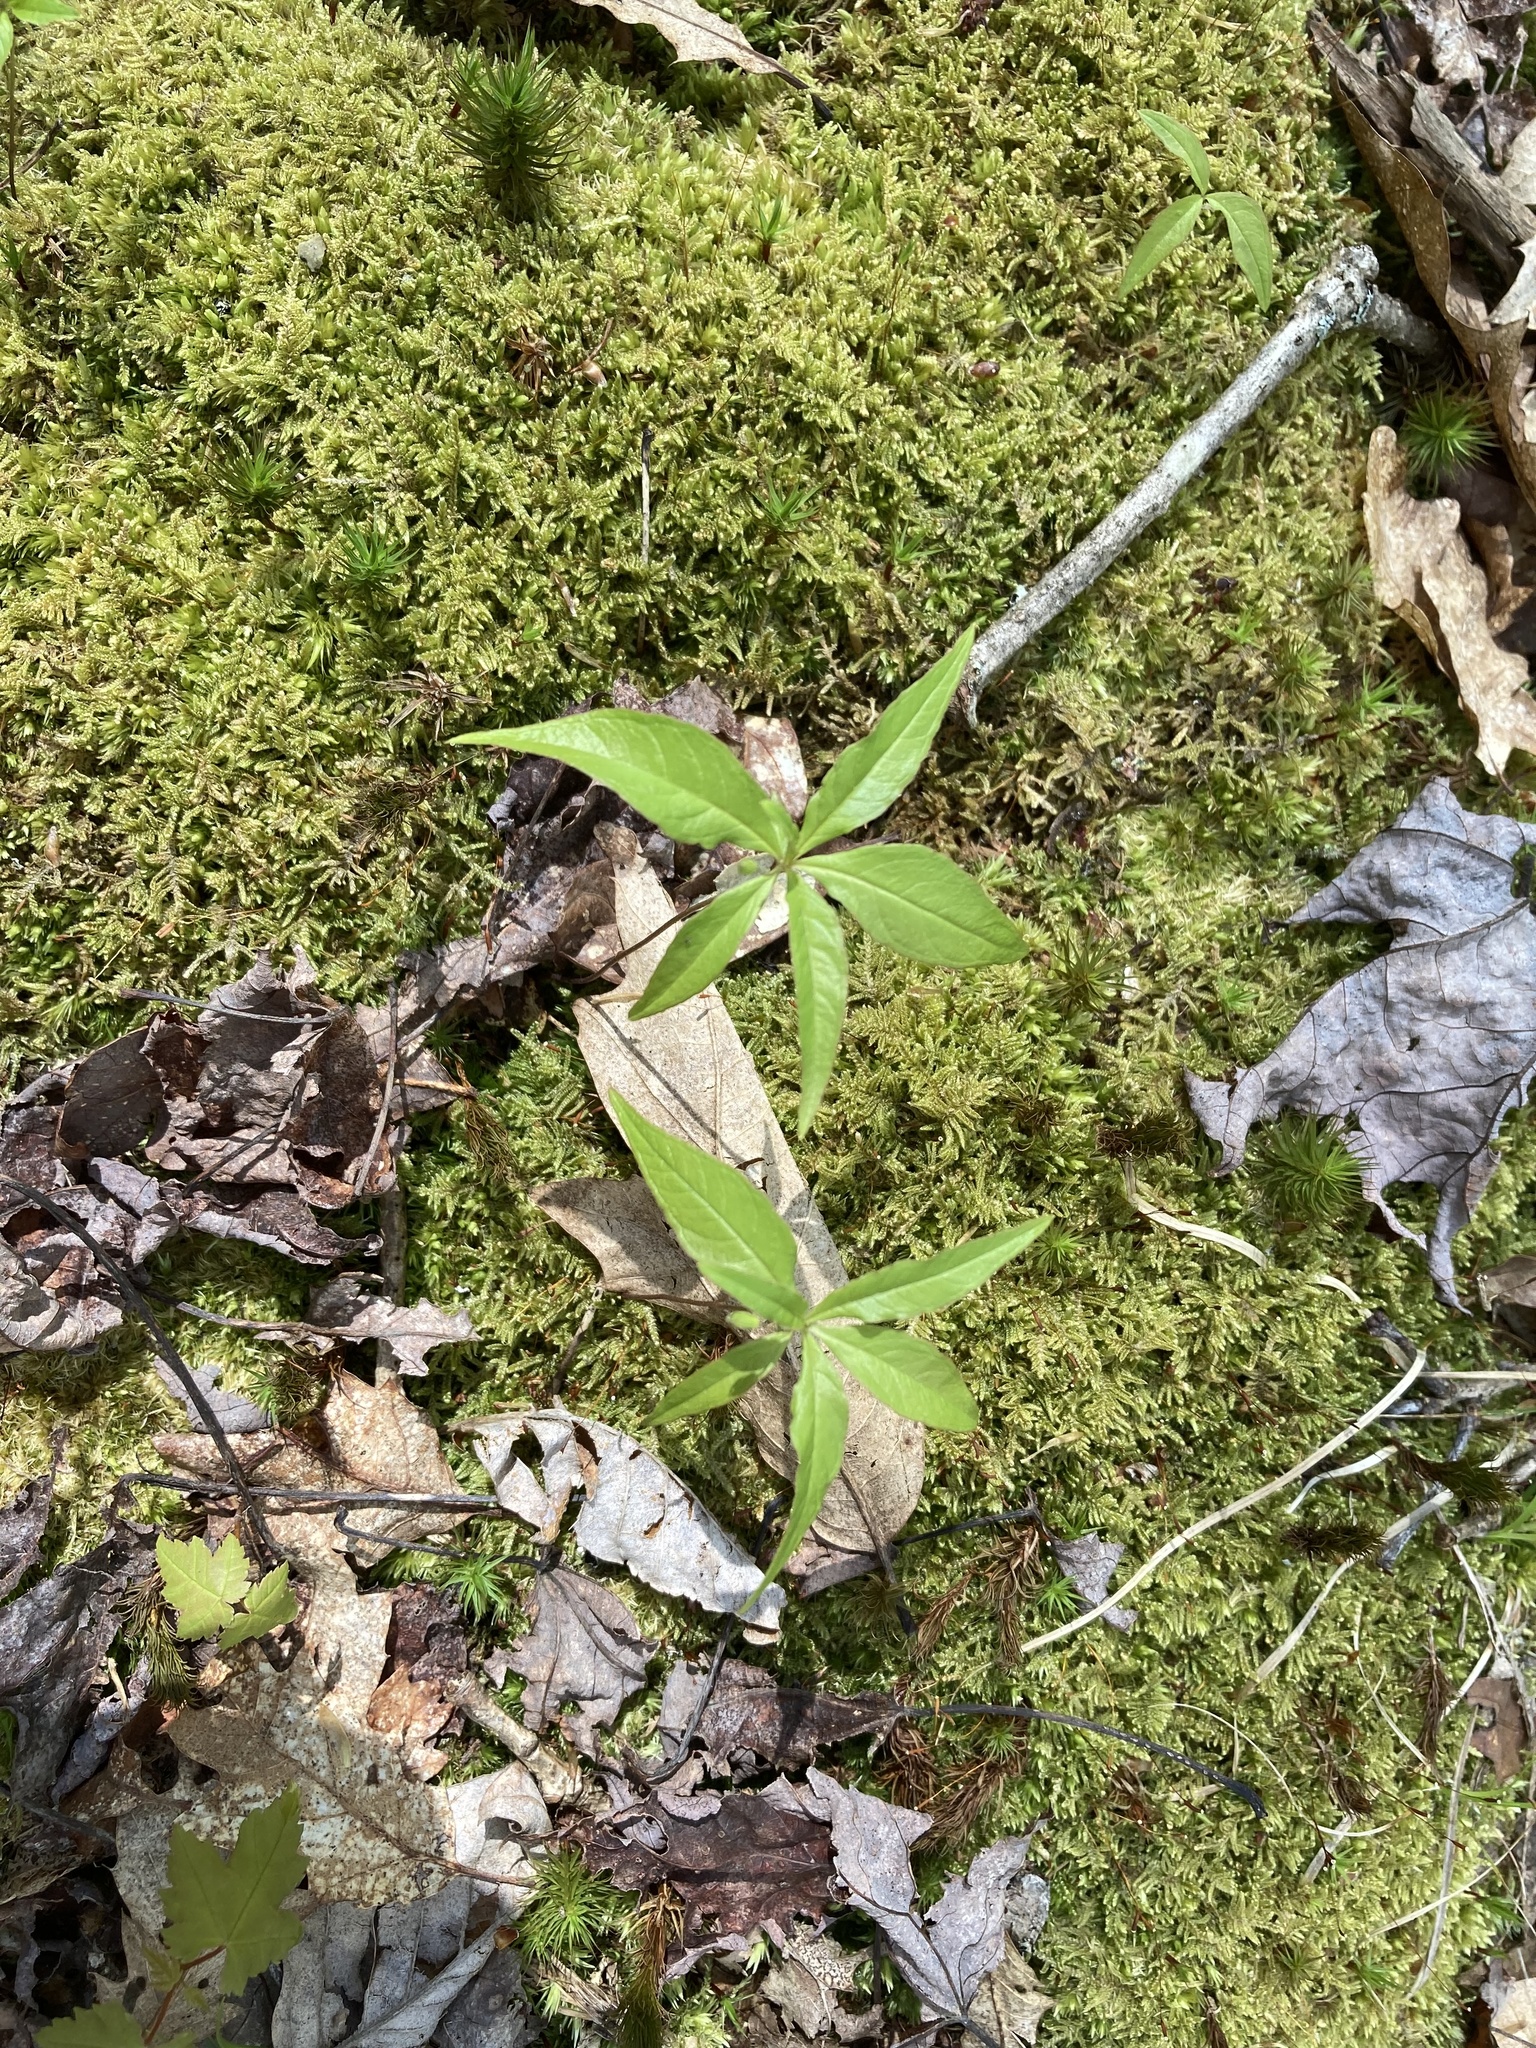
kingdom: Plantae
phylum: Tracheophyta
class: Magnoliopsida
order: Ericales
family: Primulaceae
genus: Lysimachia
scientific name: Lysimachia borealis
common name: American starflower
